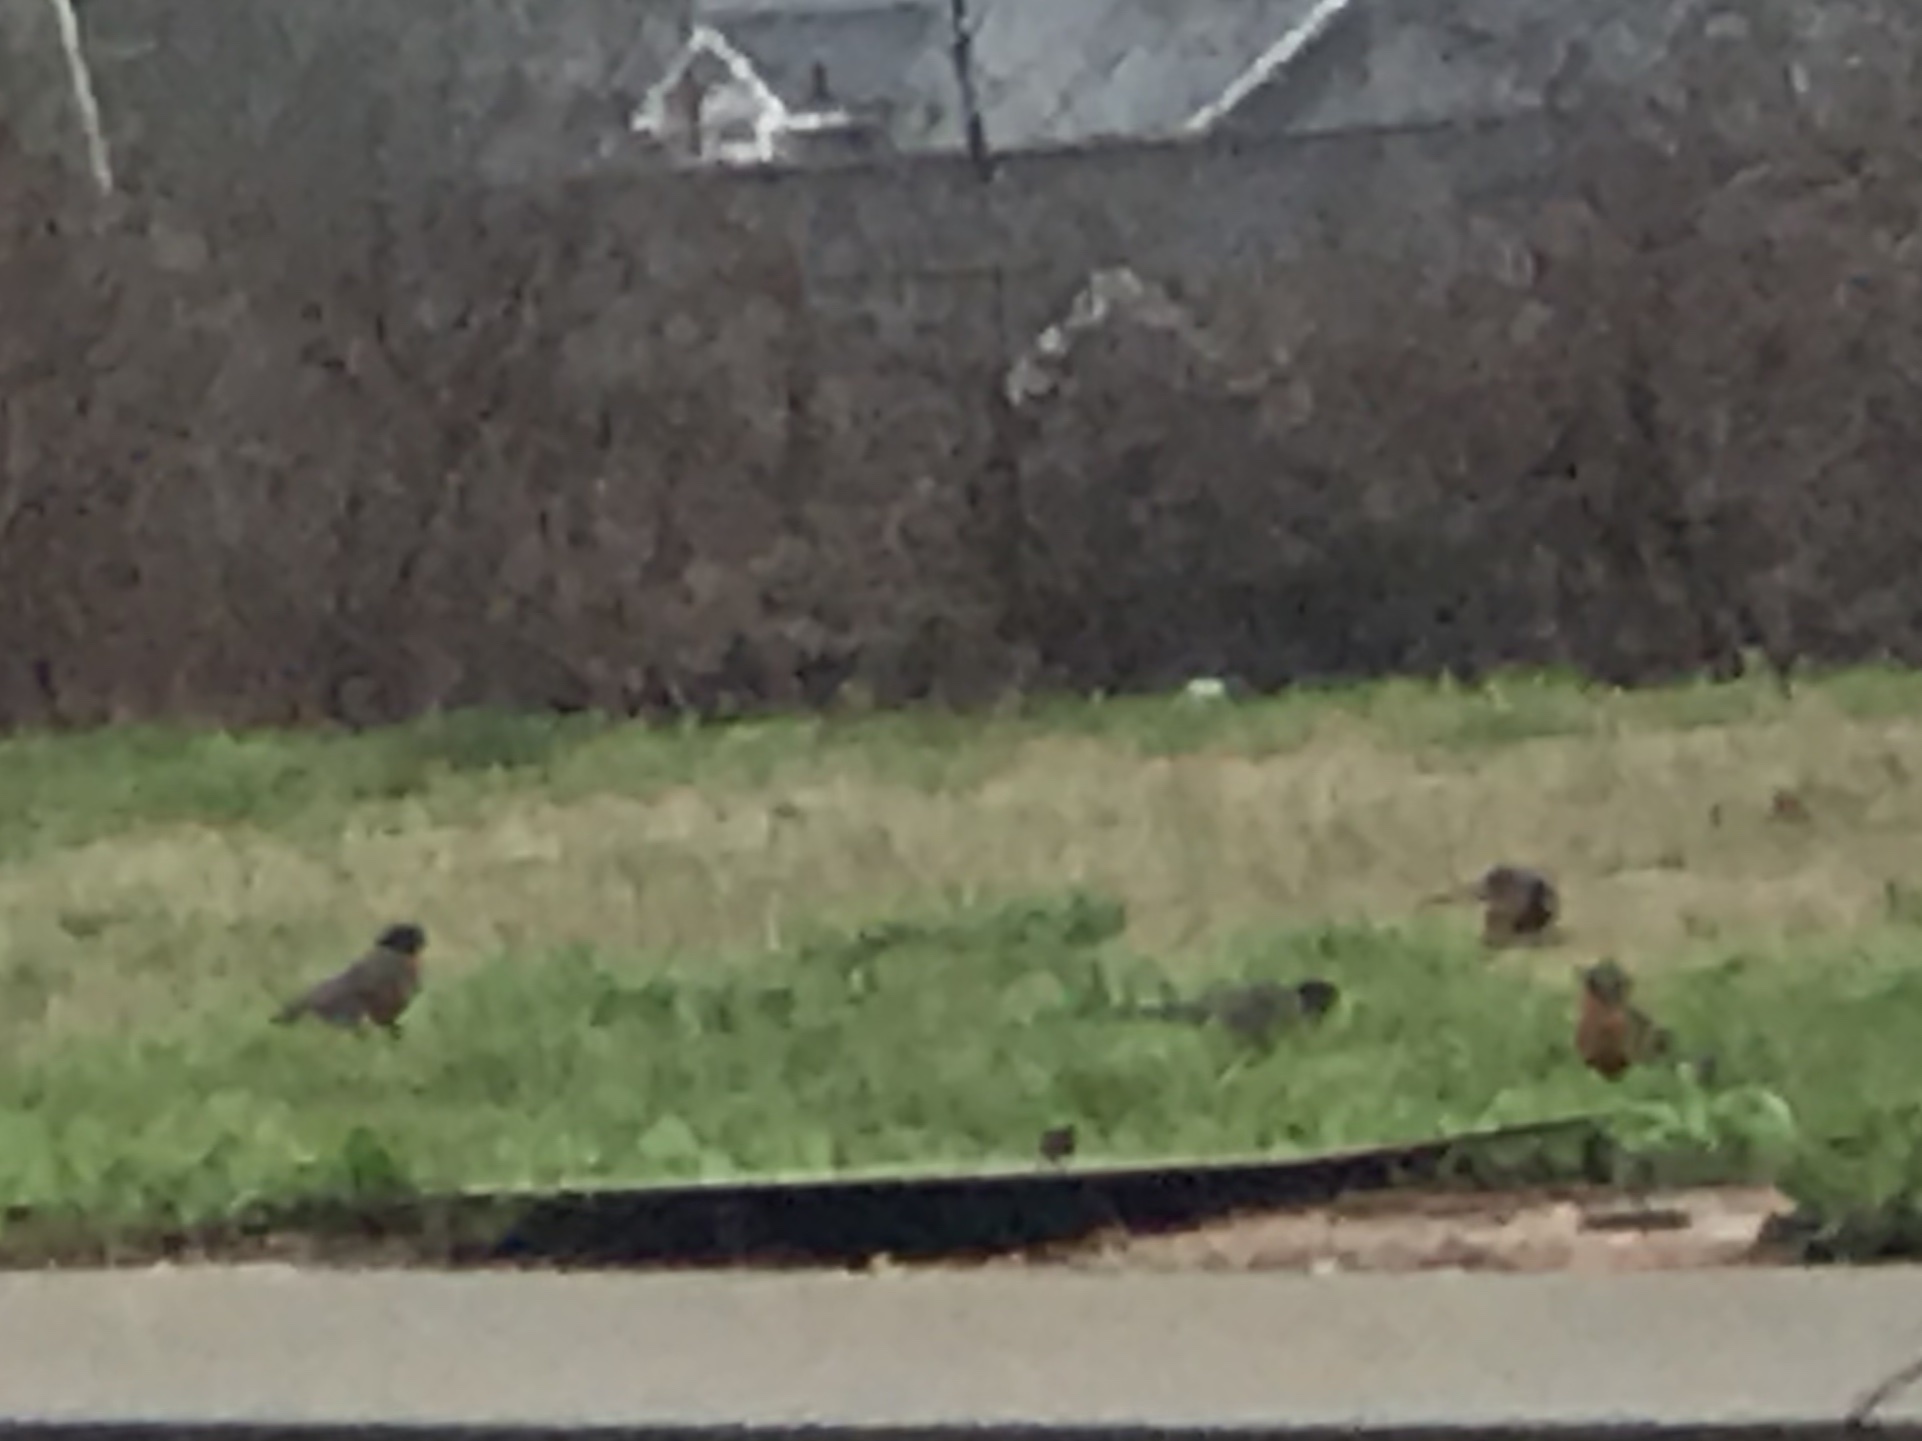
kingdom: Animalia
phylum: Chordata
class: Aves
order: Passeriformes
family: Turdidae
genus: Turdus
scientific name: Turdus migratorius
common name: American robin
